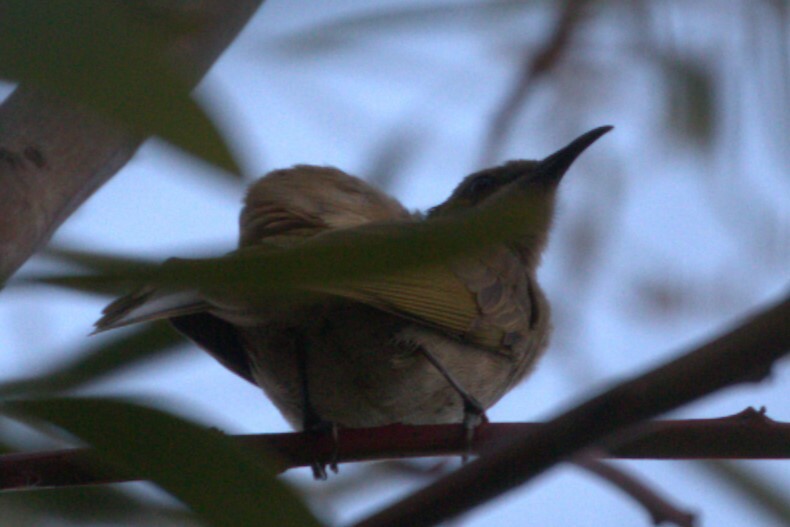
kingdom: Animalia
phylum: Chordata
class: Aves
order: Passeriformes
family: Meliphagidae
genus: Lichmera
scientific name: Lichmera indistincta
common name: Brown honeyeater
